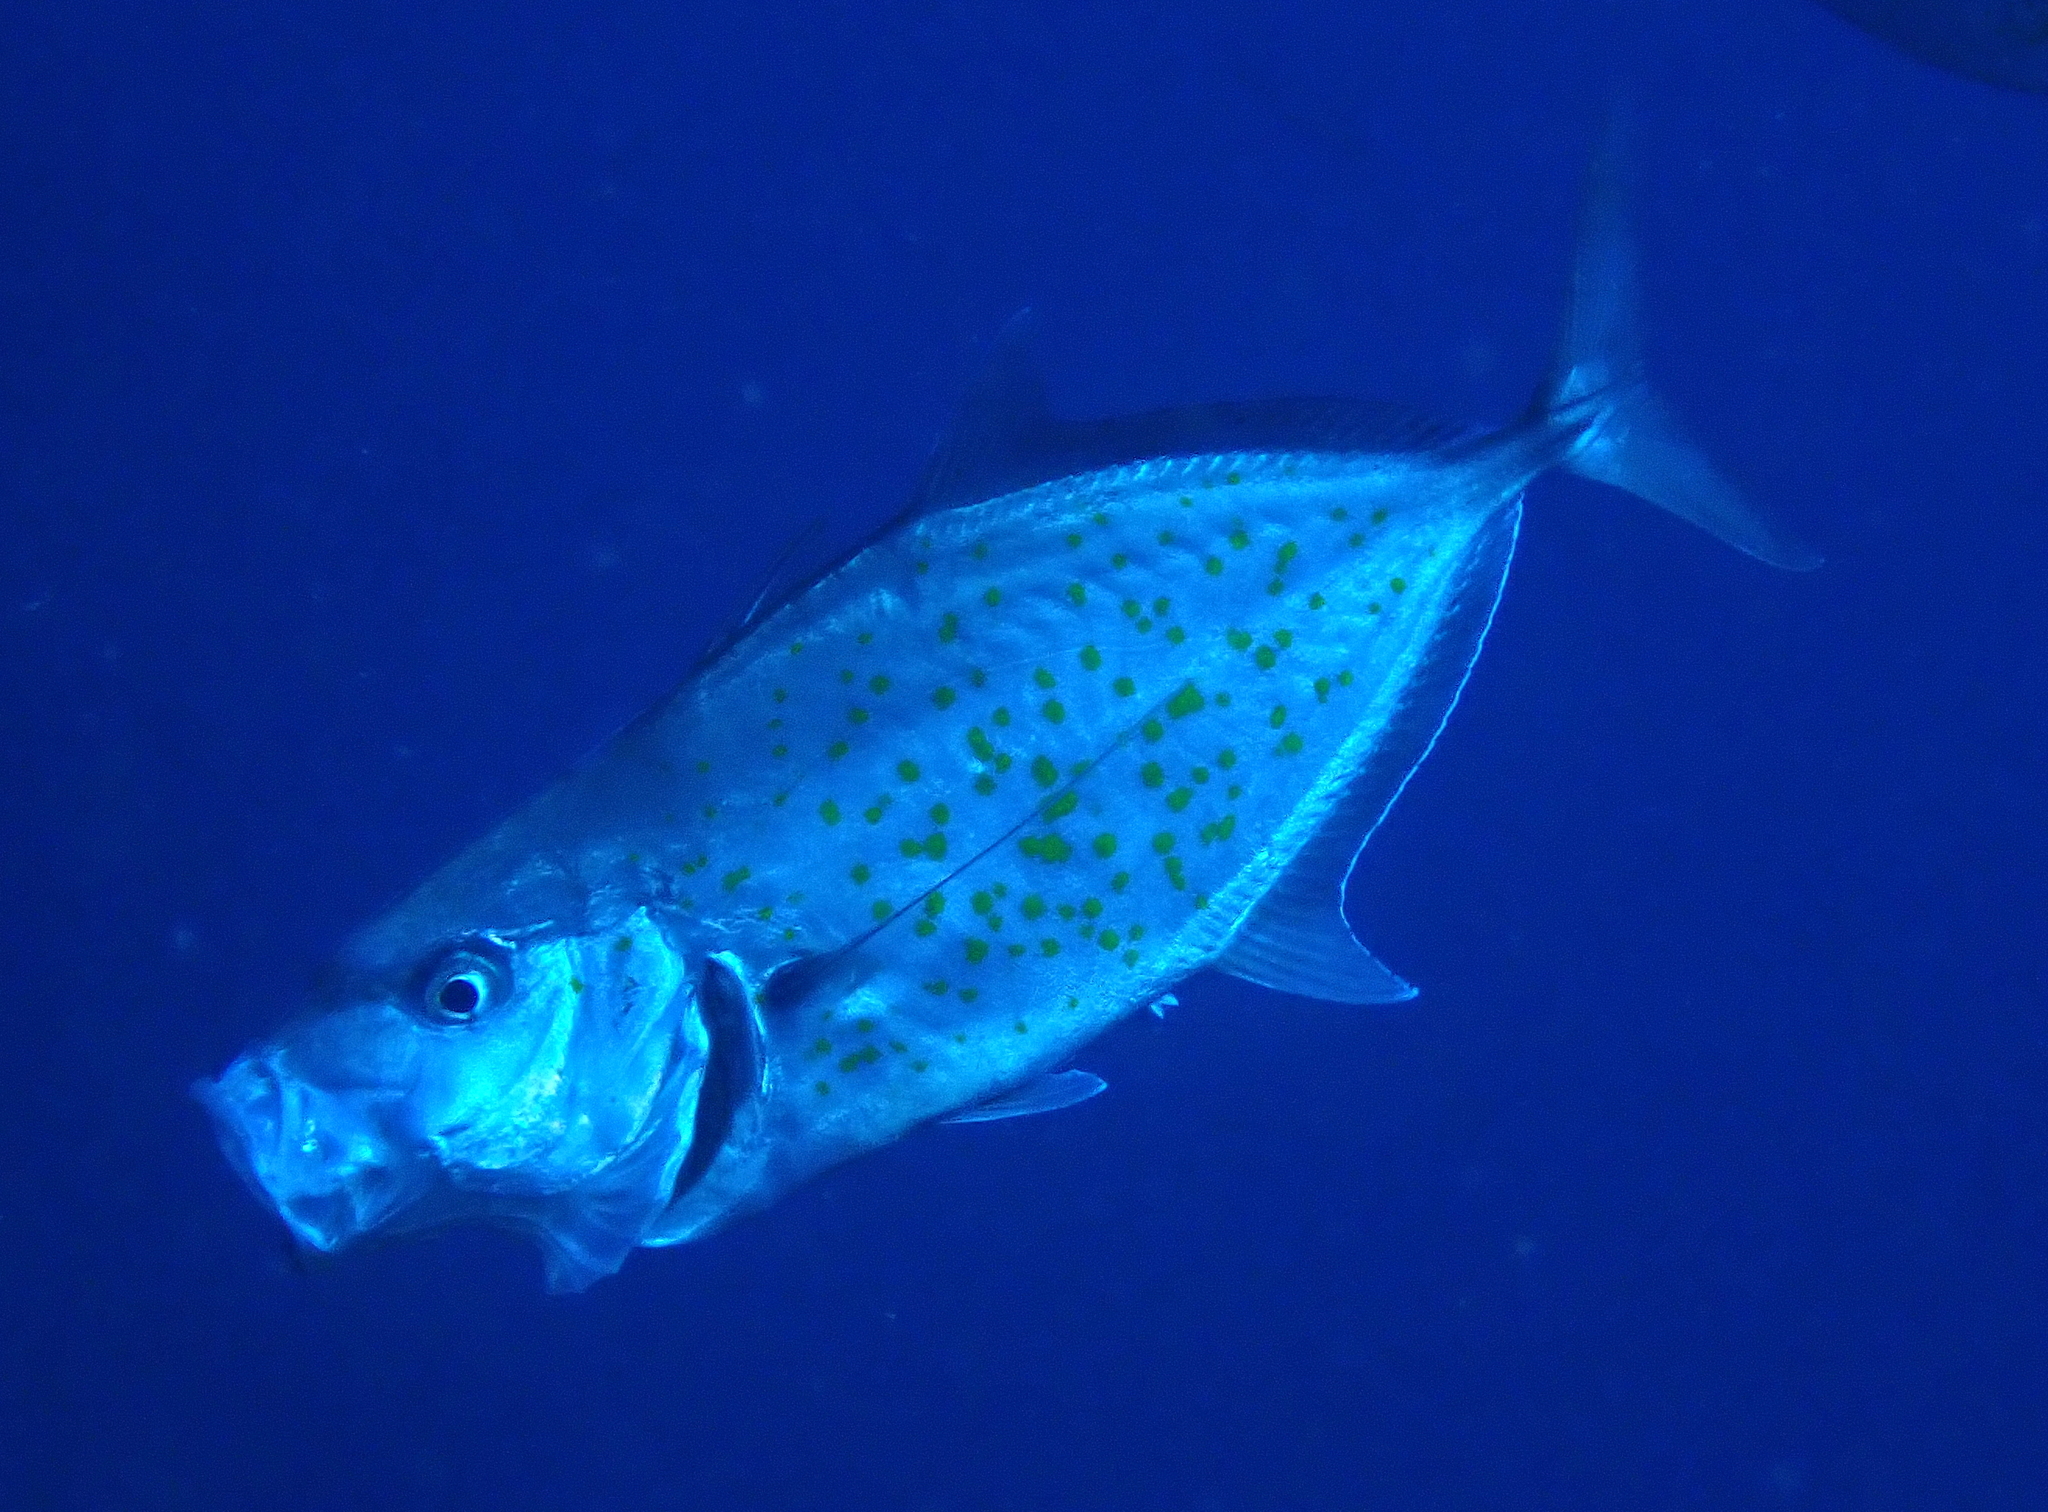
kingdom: Animalia
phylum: Chordata
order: Perciformes
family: Carangidae
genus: Flavocaranx
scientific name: Flavocaranx bajad
